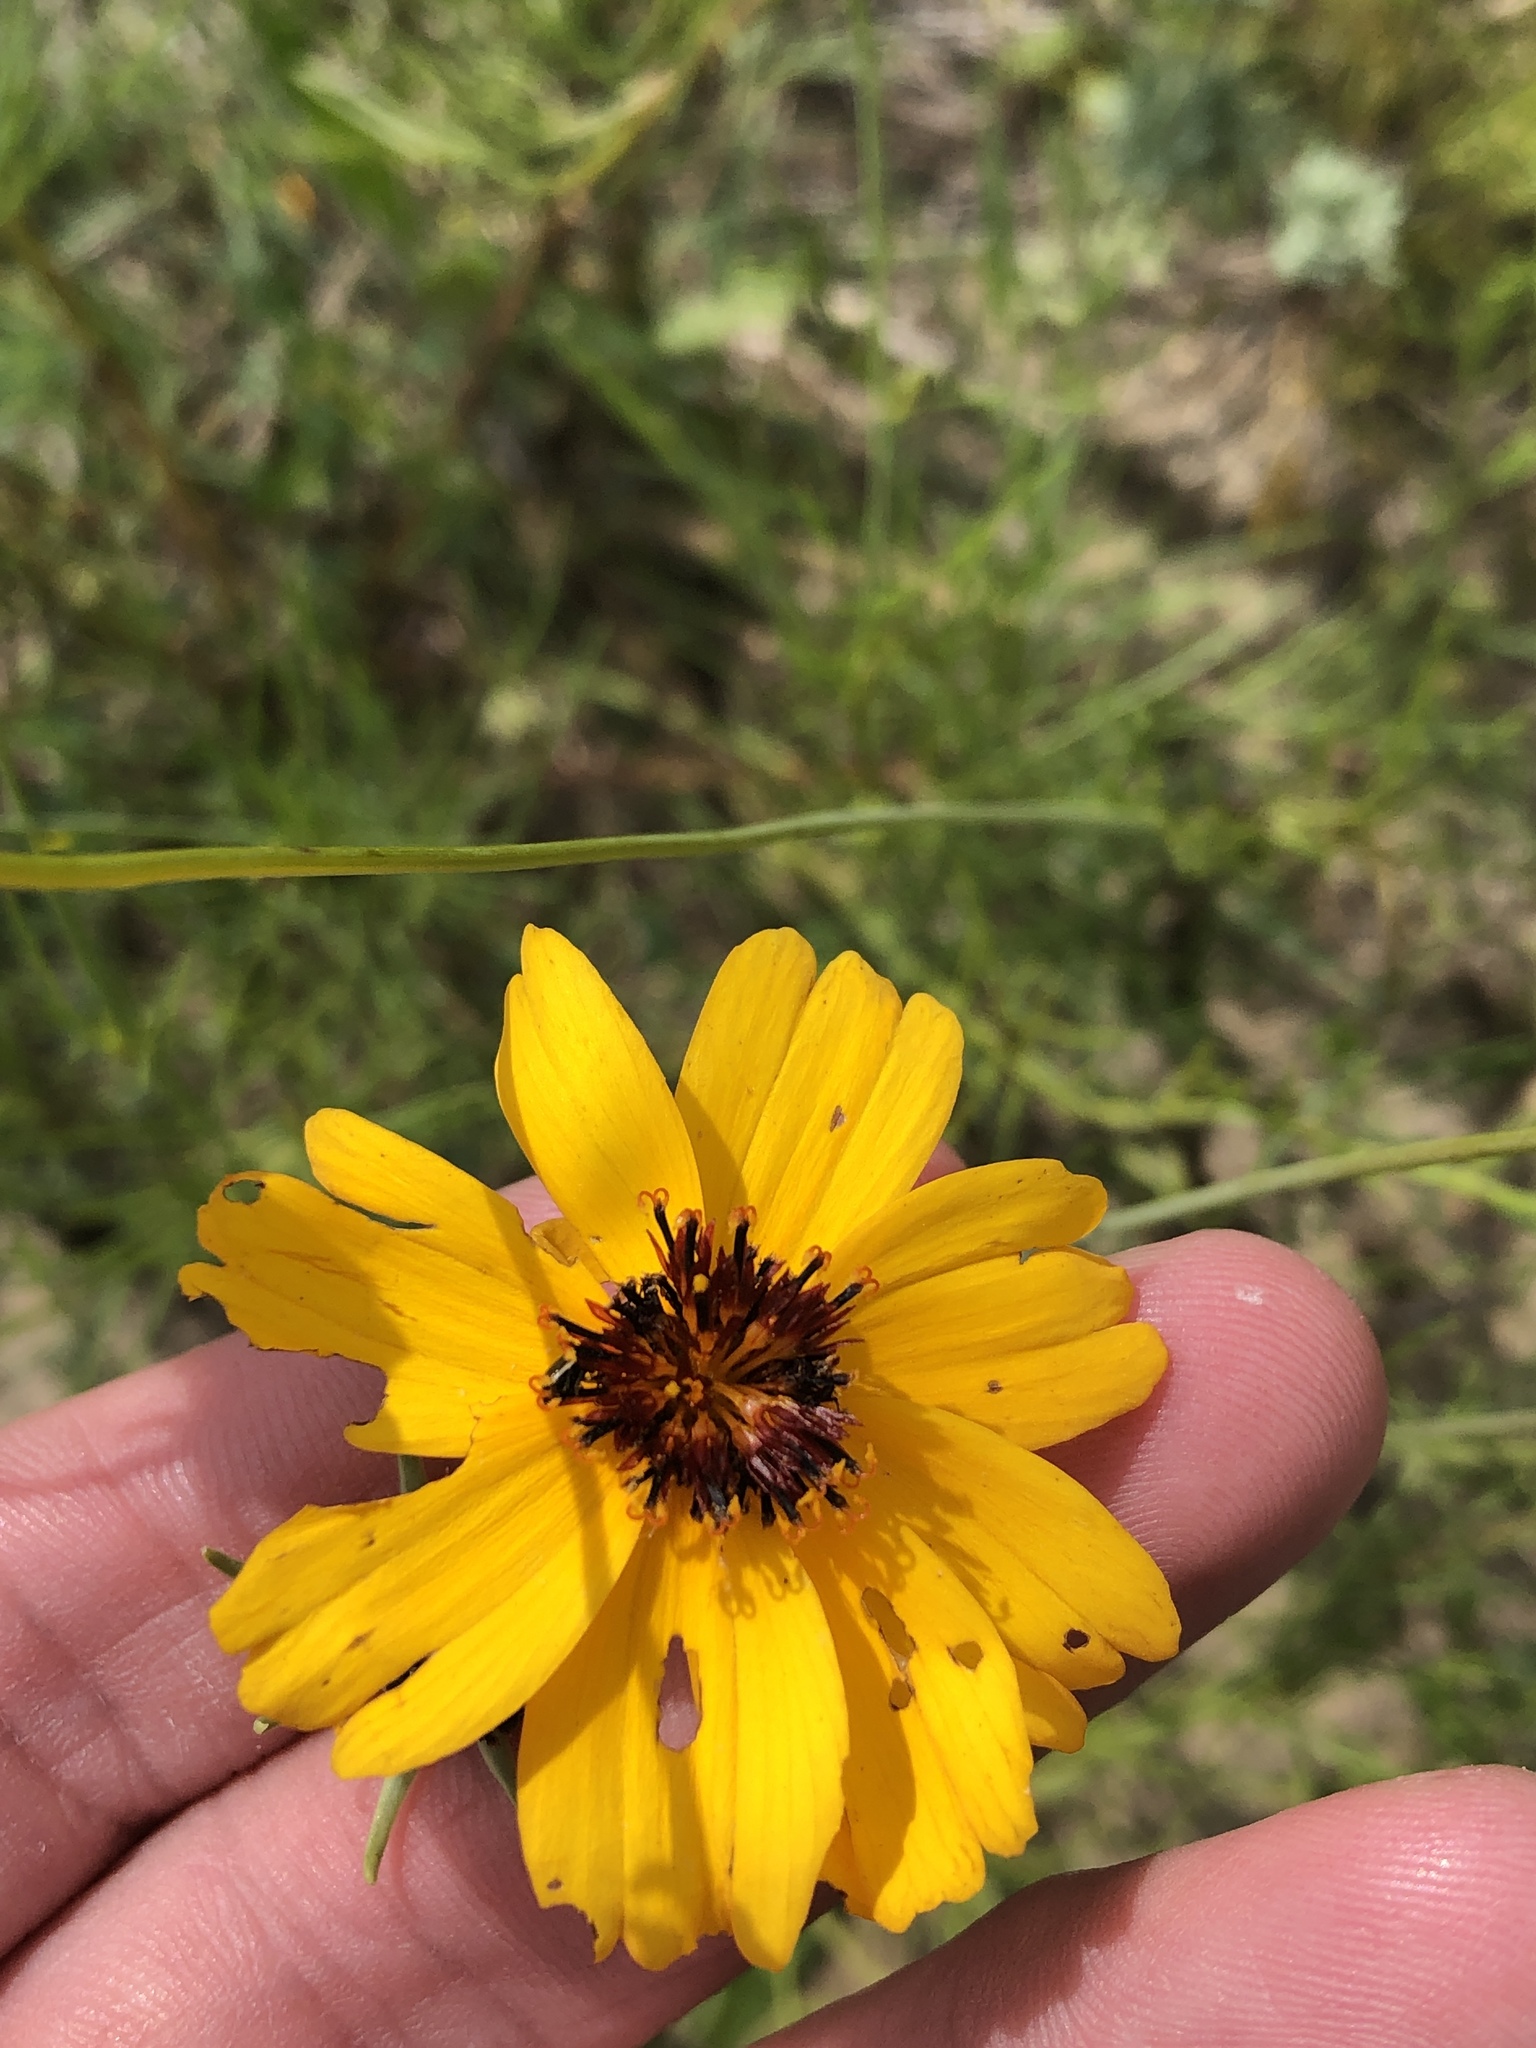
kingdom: Plantae
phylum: Tracheophyta
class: Magnoliopsida
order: Asterales
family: Asteraceae
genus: Thelesperma
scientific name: Thelesperma filifolium
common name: Stiff greenthread
